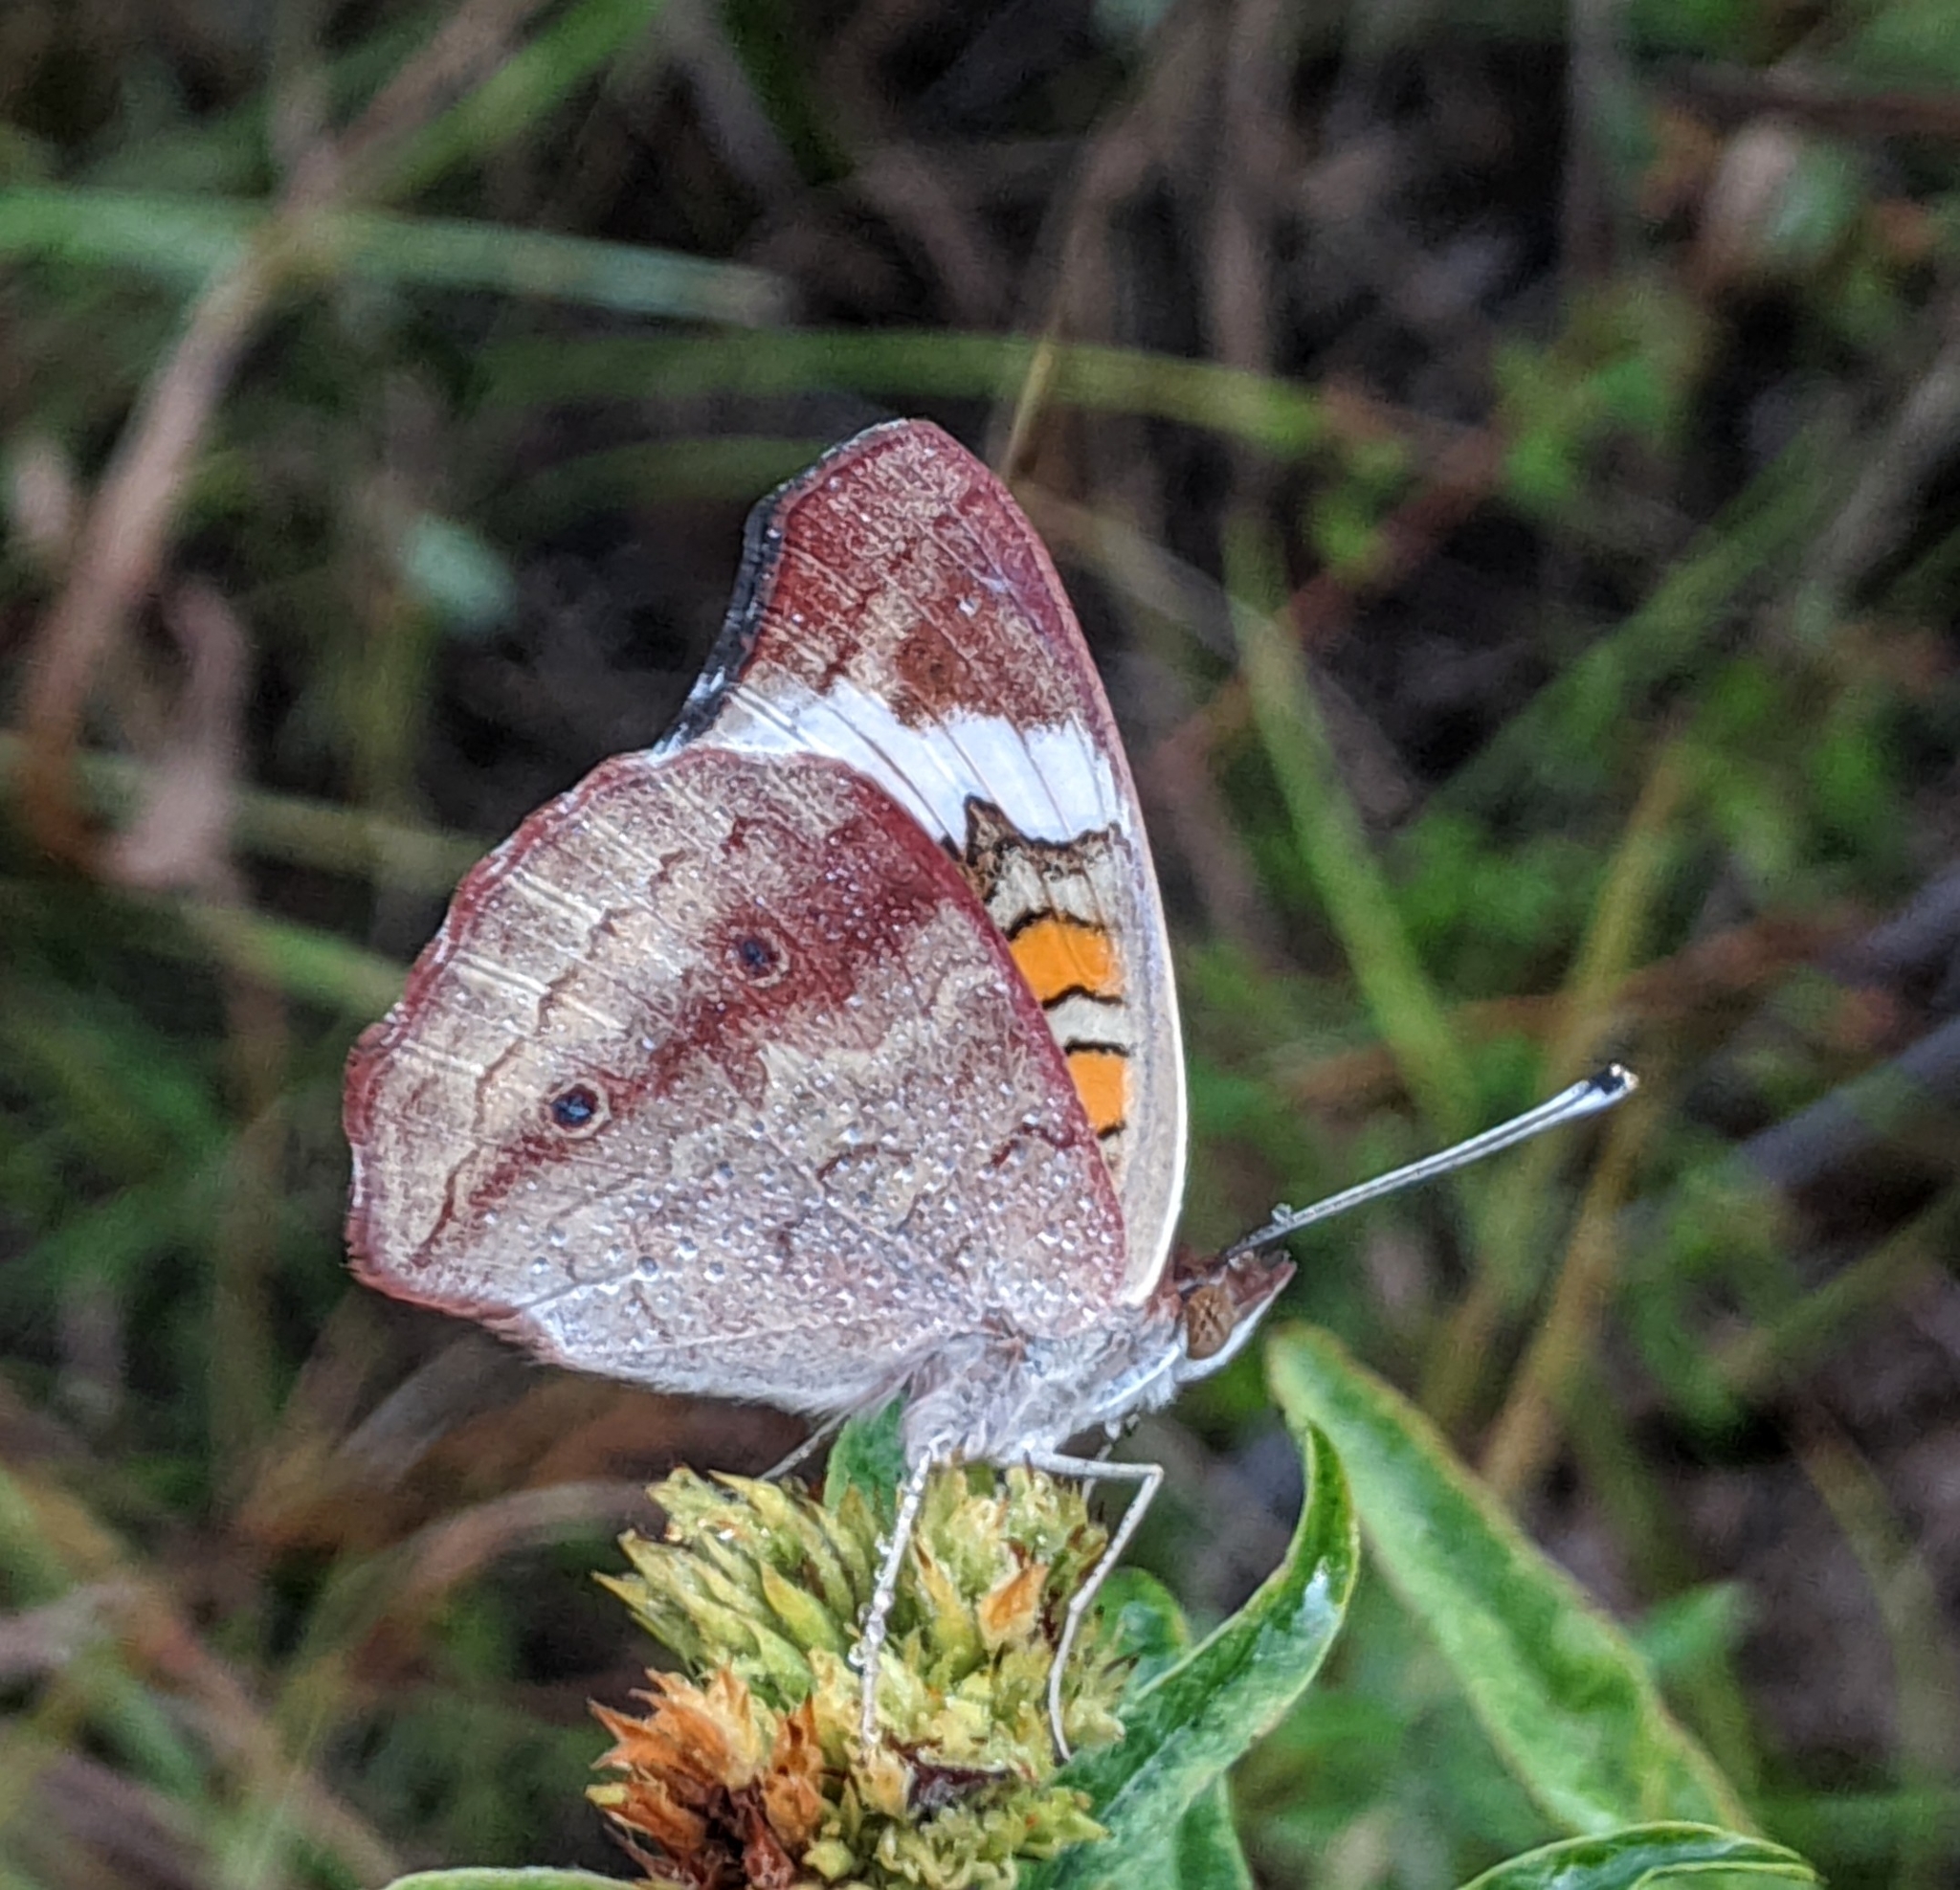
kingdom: Animalia
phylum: Arthropoda
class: Insecta
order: Lepidoptera
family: Nymphalidae
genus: Junonia
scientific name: Junonia coenia
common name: Common buckeye
